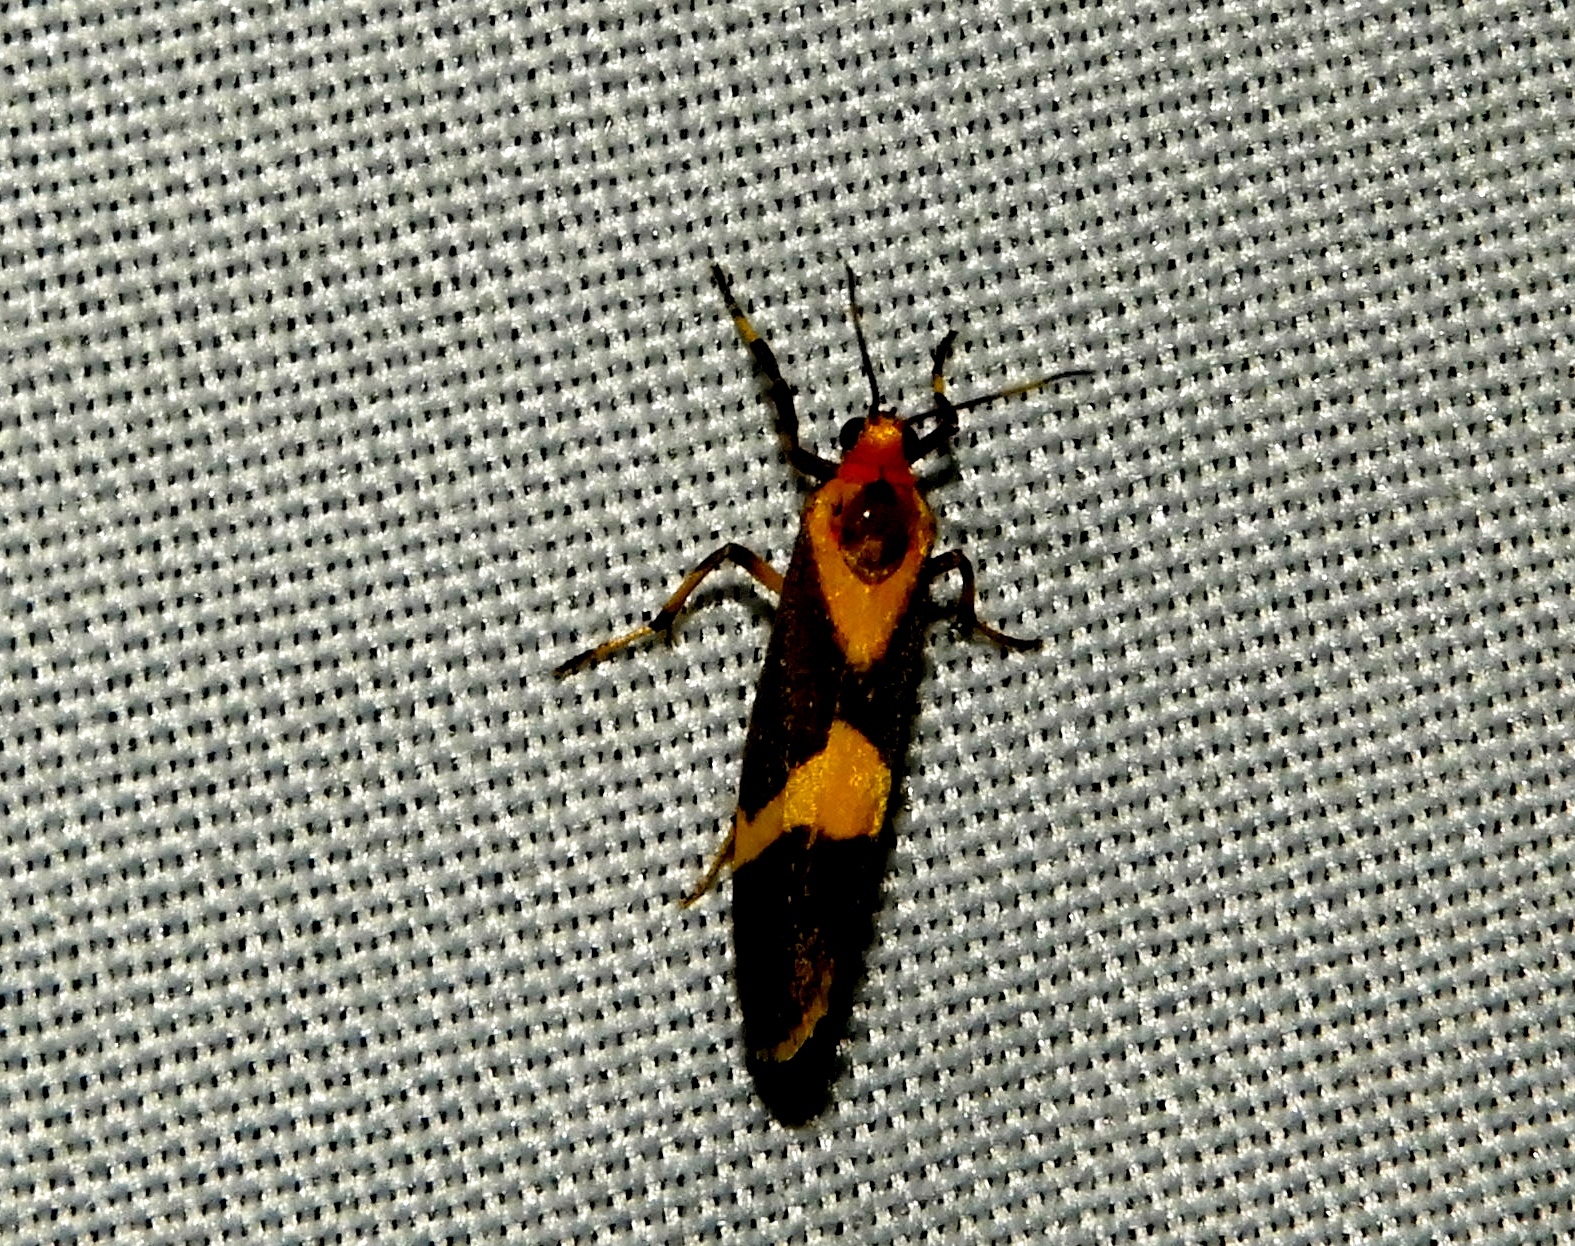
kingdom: Animalia
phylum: Arthropoda
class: Insecta
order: Lepidoptera
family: Erebidae
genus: Cisthene
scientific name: Cisthene
